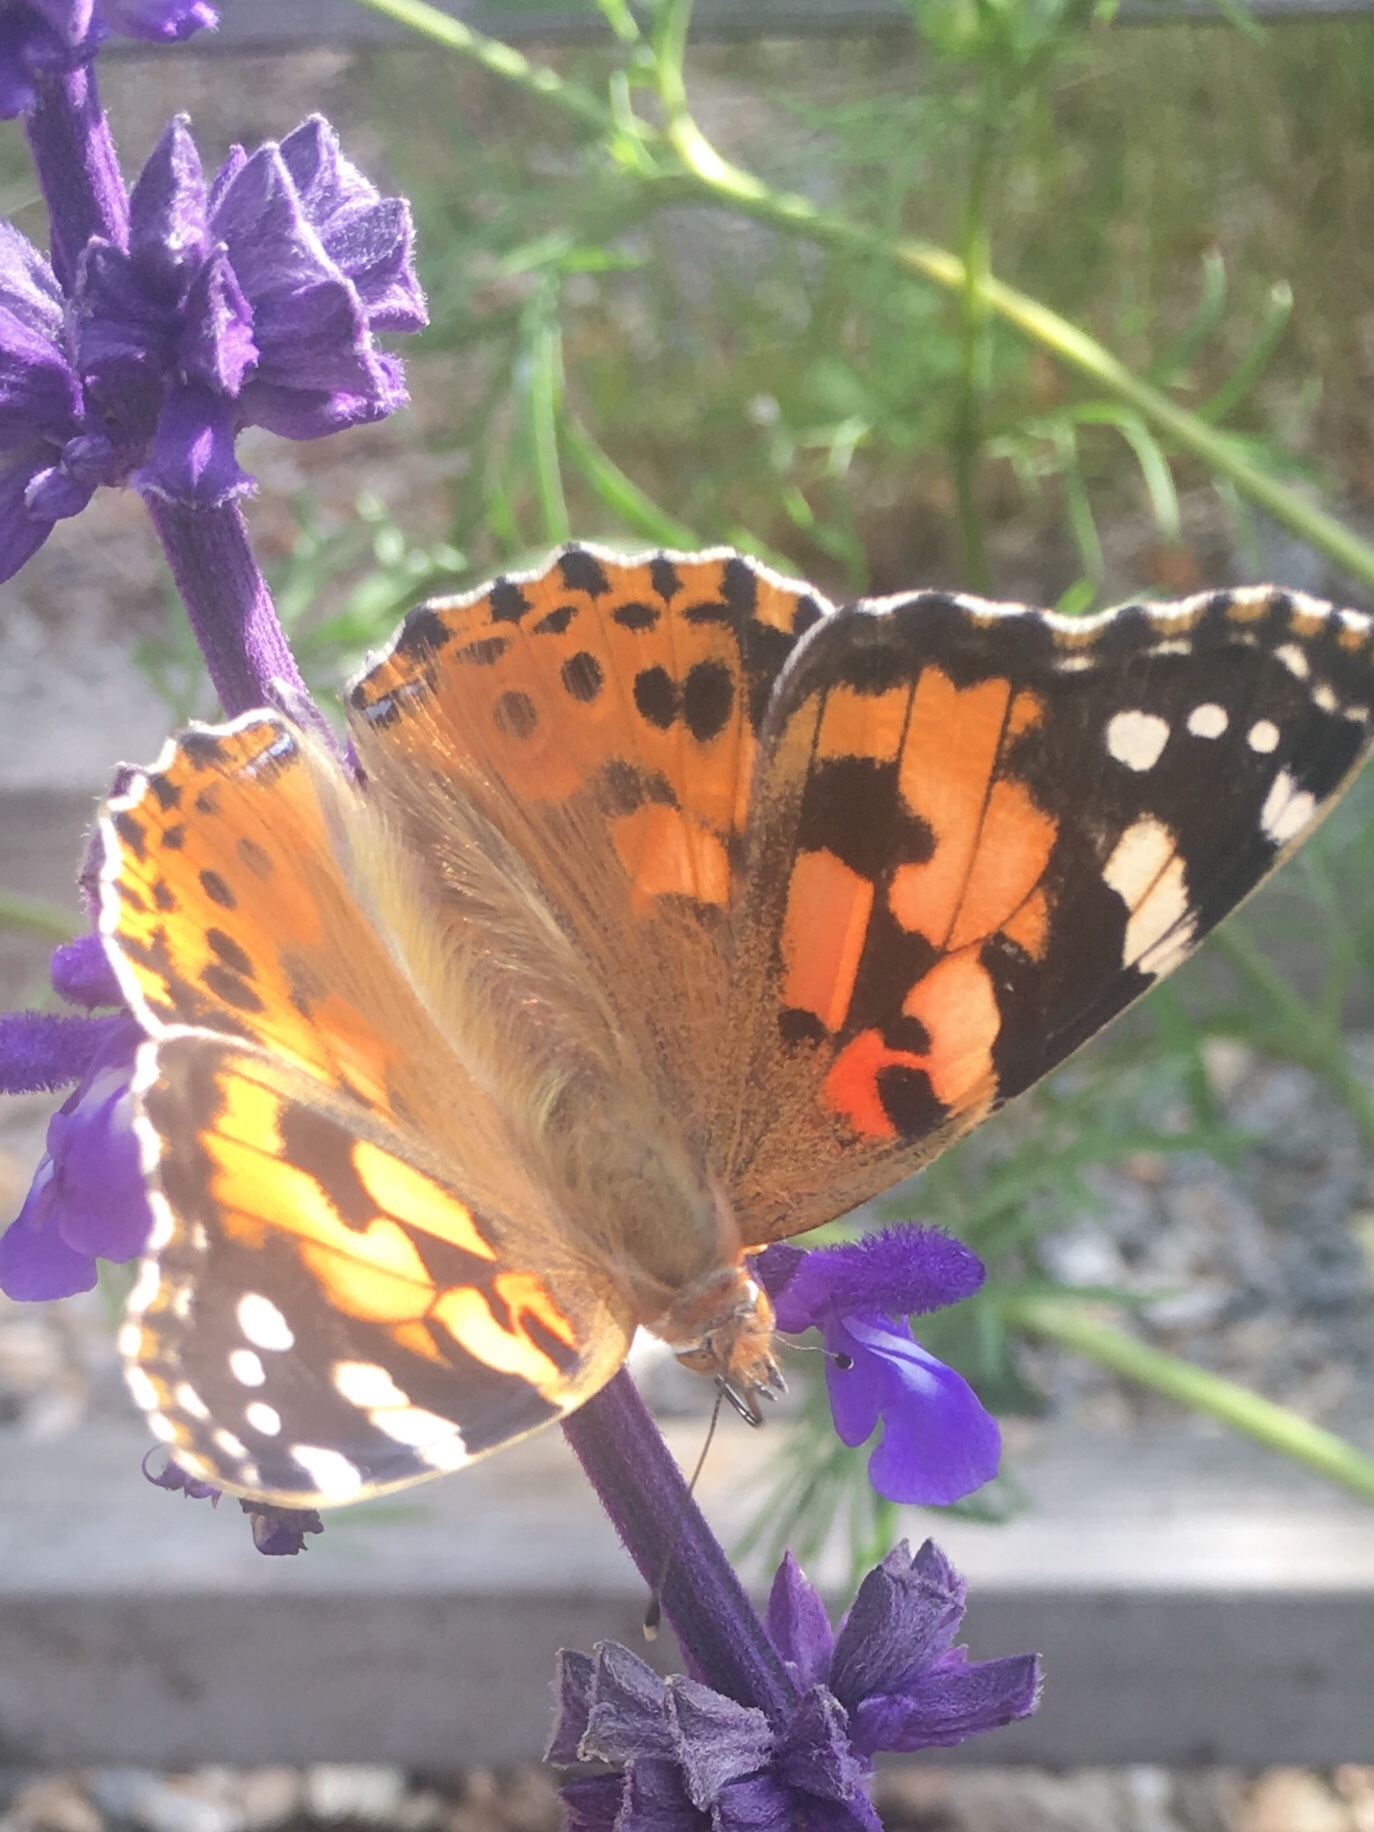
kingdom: Animalia
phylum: Arthropoda
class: Insecta
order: Lepidoptera
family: Nymphalidae
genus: Vanessa
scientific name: Vanessa cardui
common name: Painted lady
